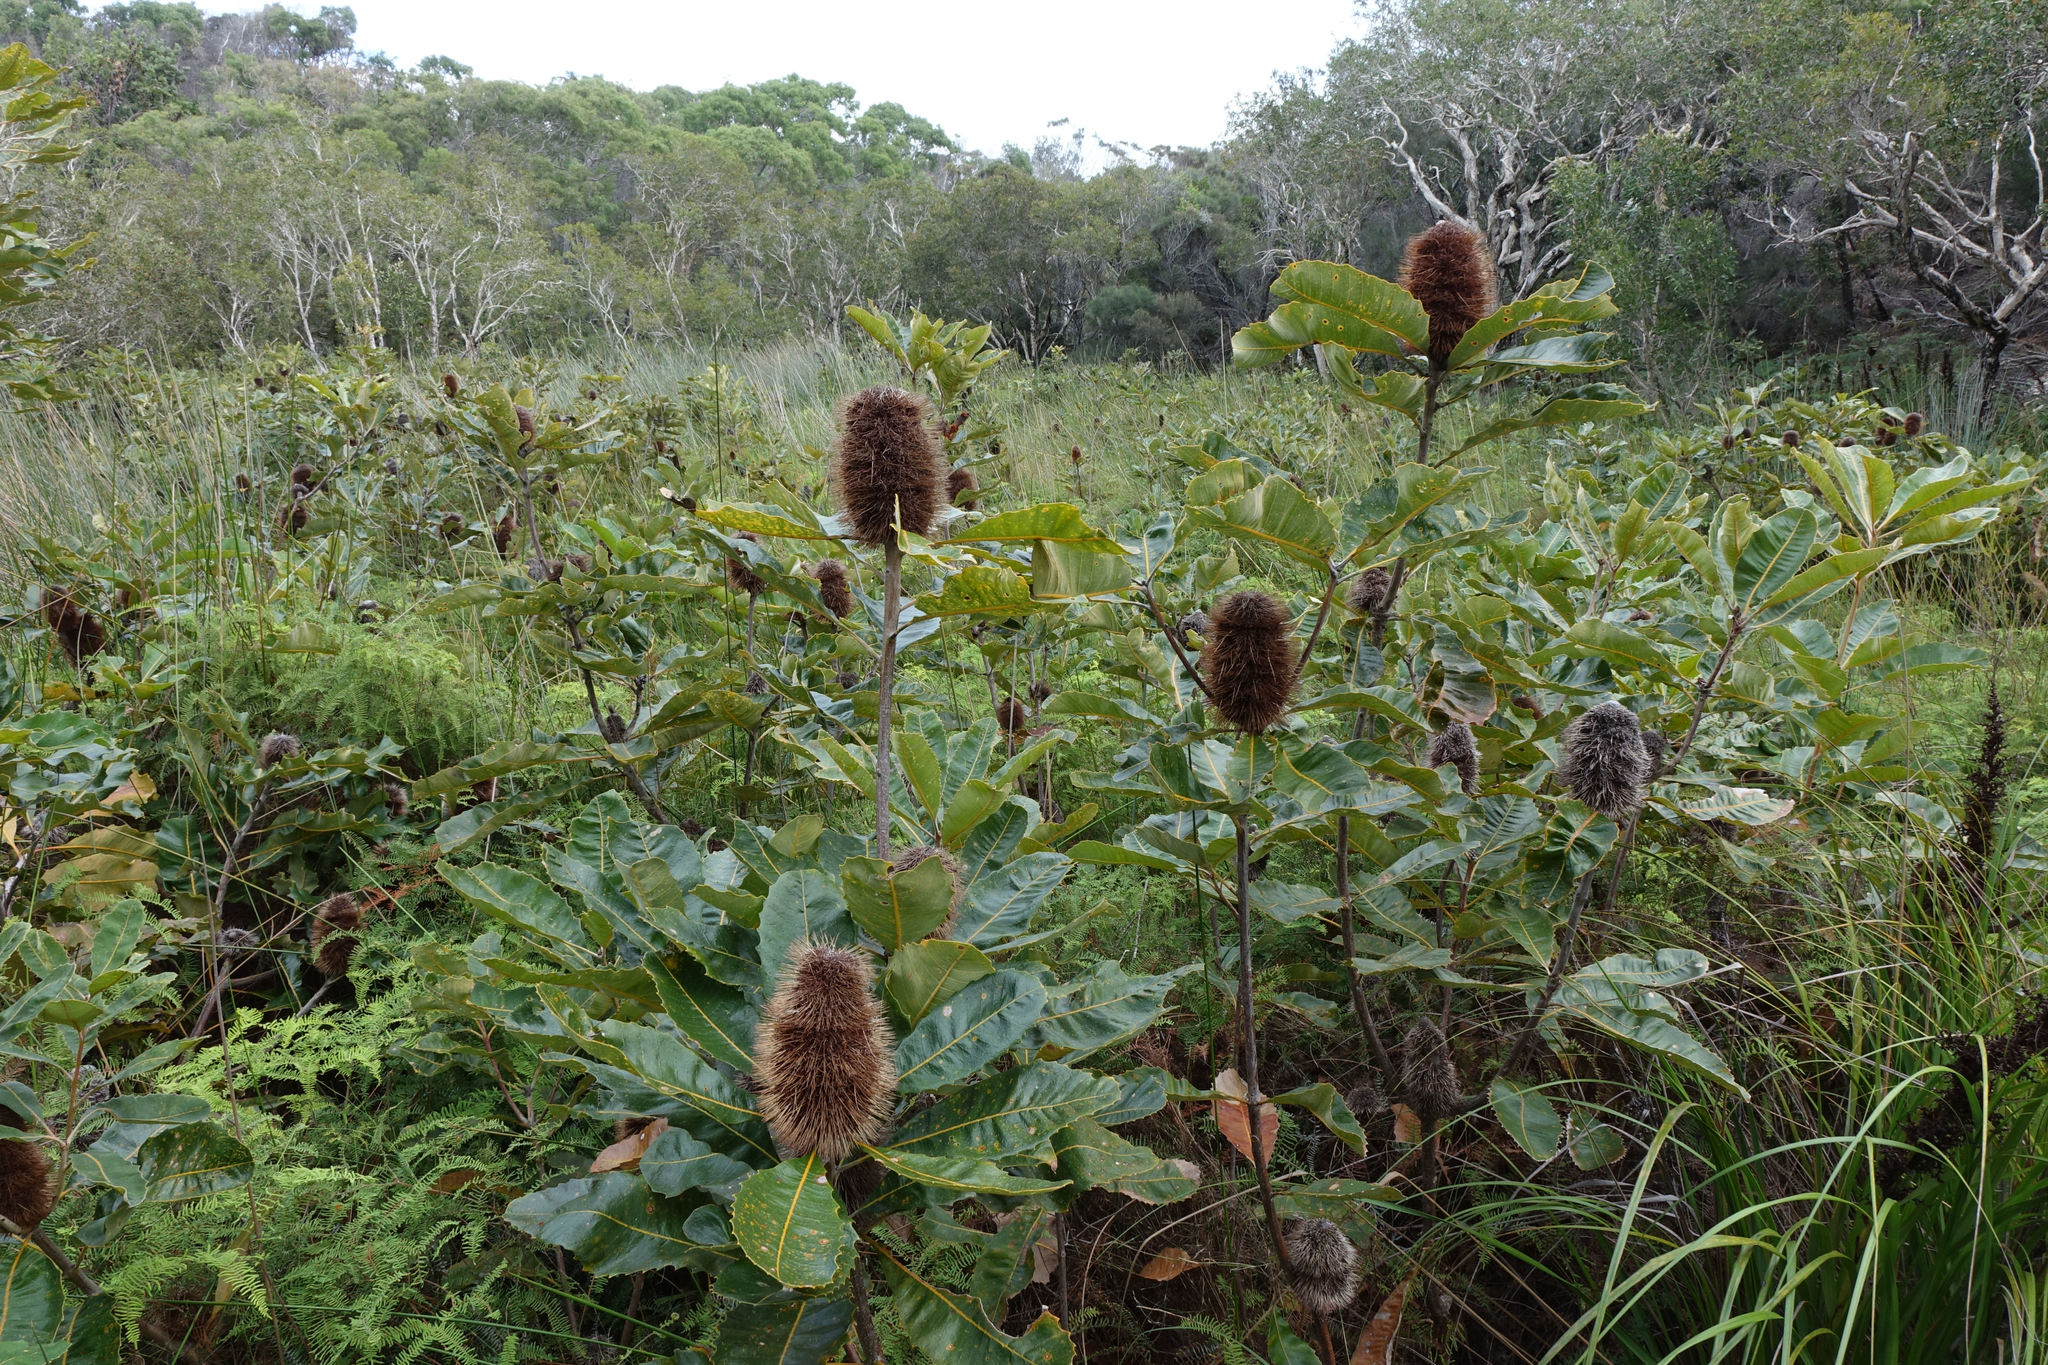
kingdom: Plantae
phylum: Tracheophyta
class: Magnoliopsida
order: Proteales
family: Proteaceae
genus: Banksia
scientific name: Banksia robur
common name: Broadleaf banksia
